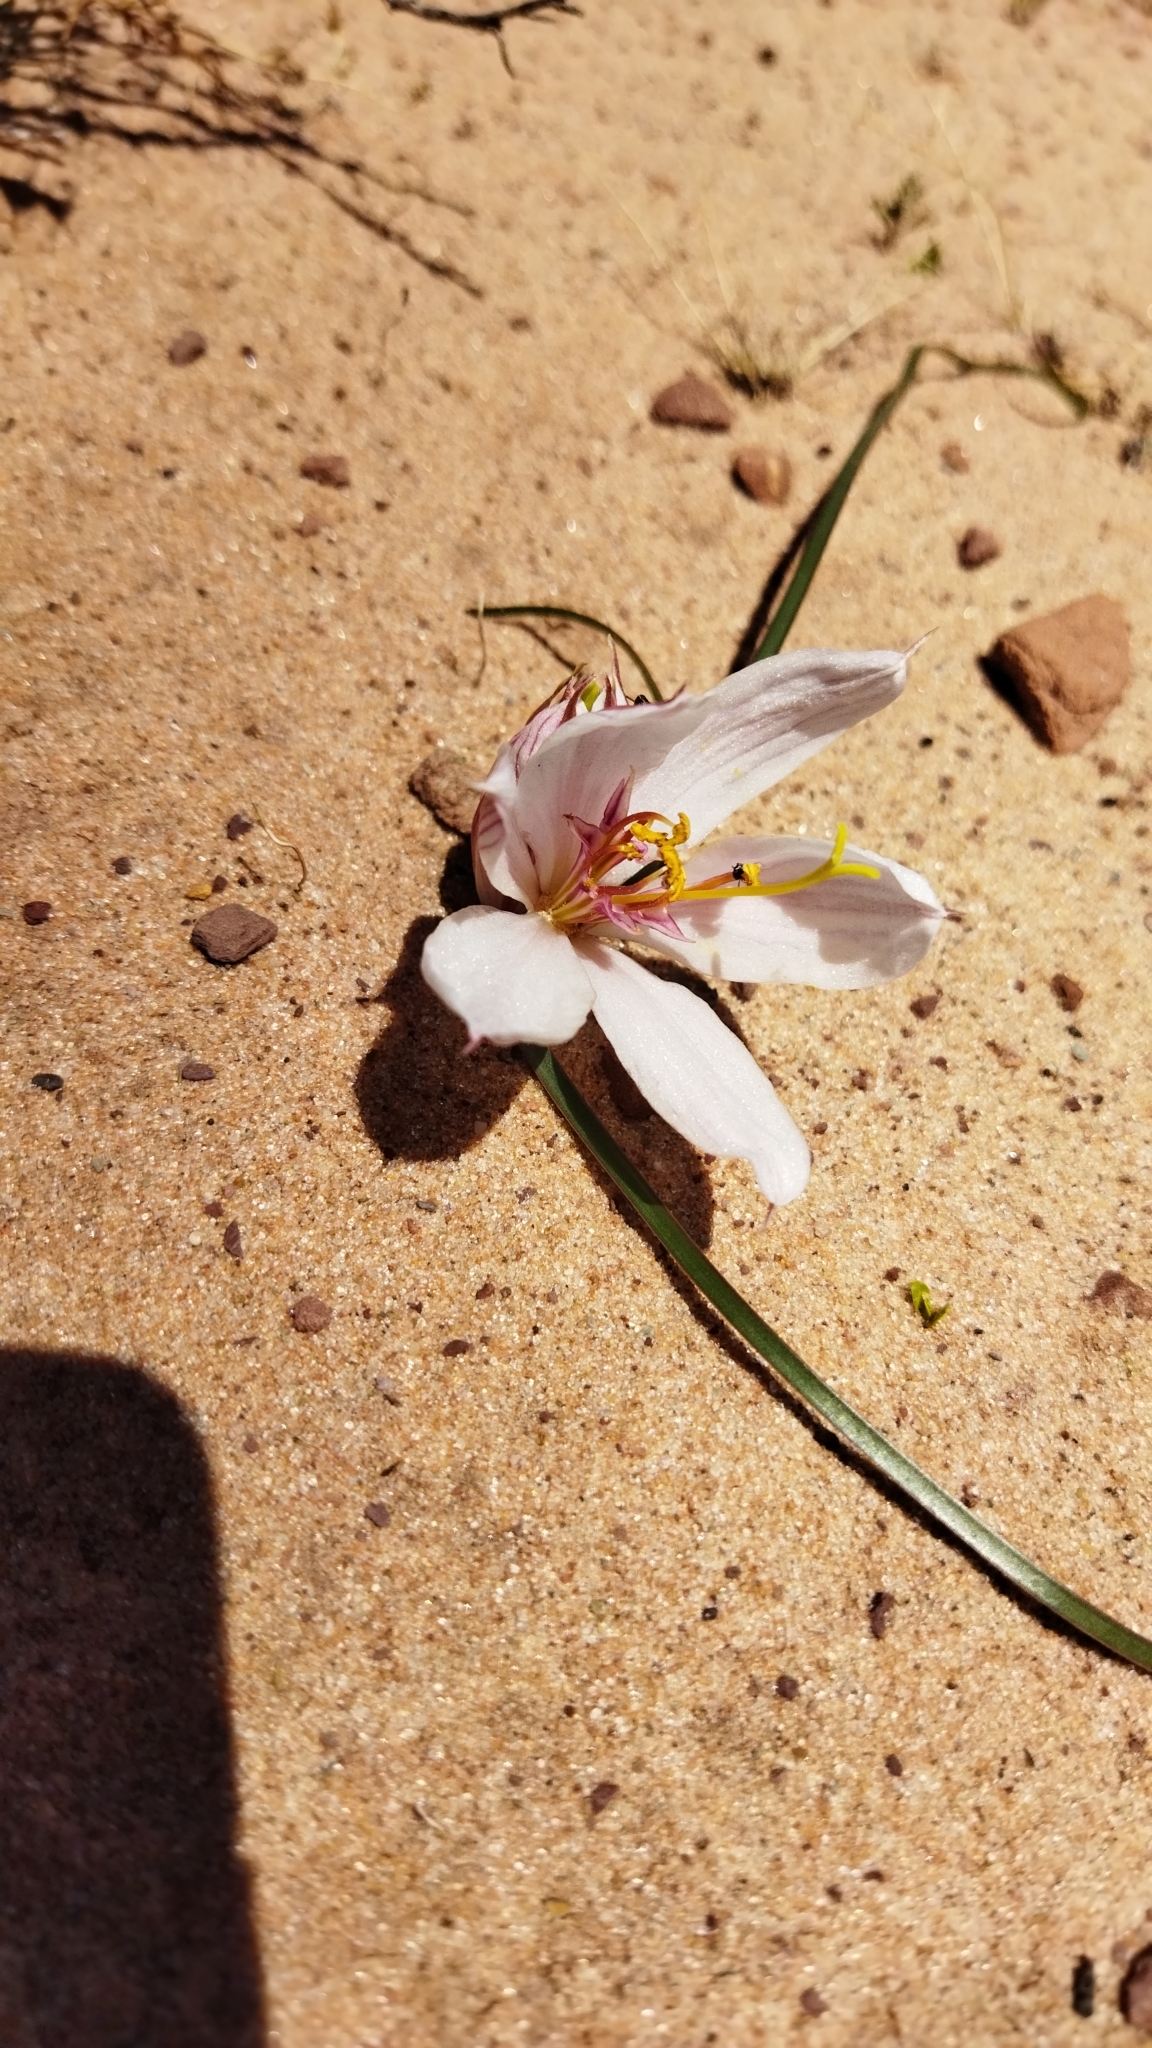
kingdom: Plantae
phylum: Tracheophyta
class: Liliopsida
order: Asparagales
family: Amaryllidaceae
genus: Hieronymiella
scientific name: Hieronymiella speciosa
